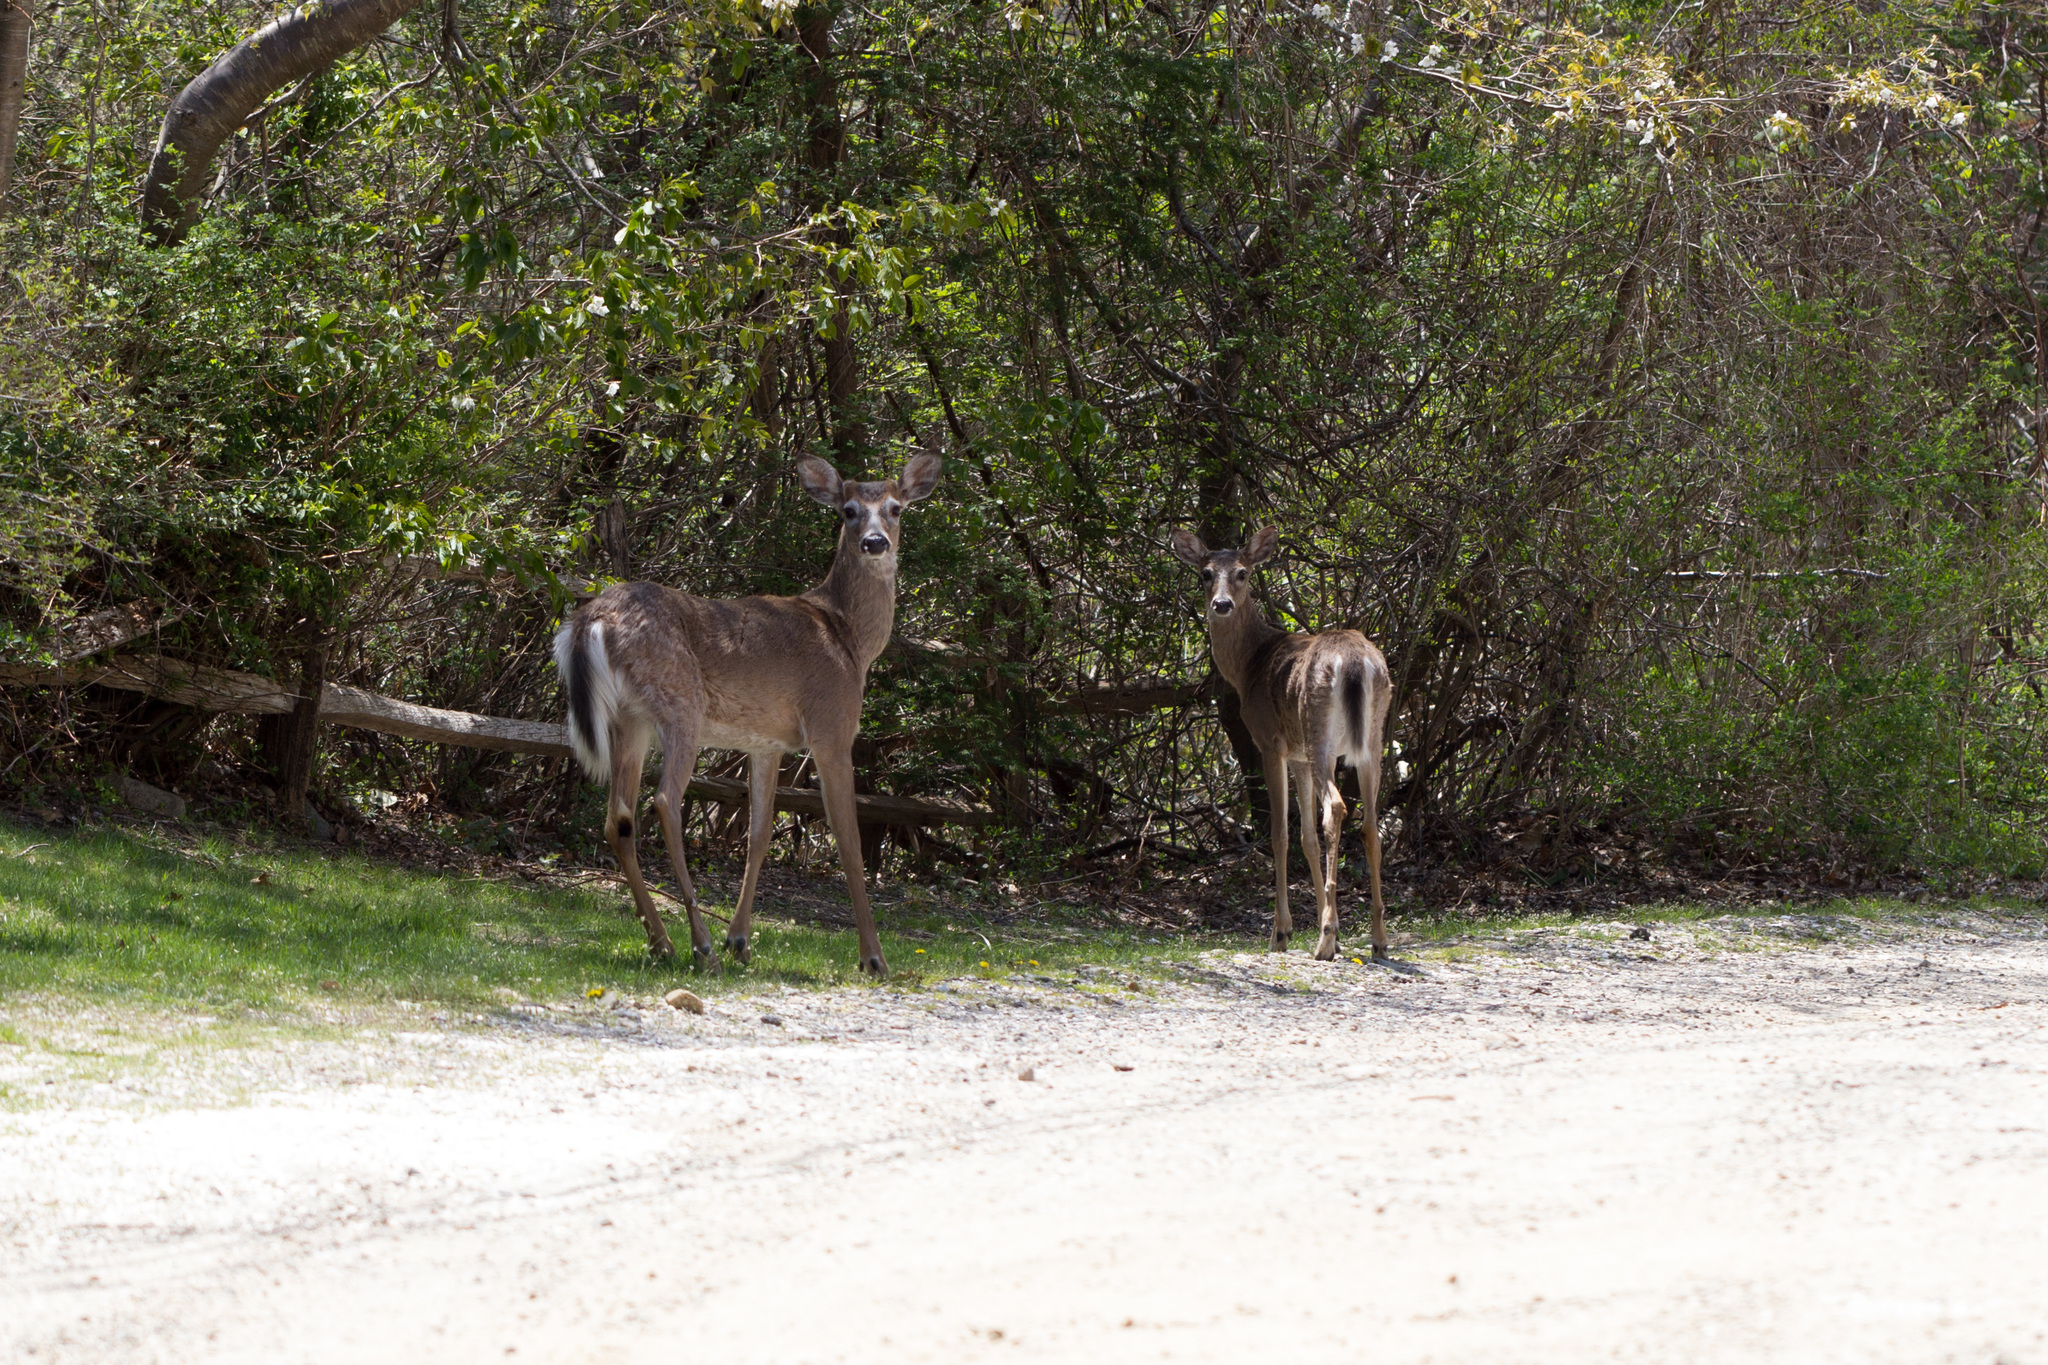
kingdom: Animalia
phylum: Chordata
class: Mammalia
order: Artiodactyla
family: Cervidae
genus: Odocoileus
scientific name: Odocoileus virginianus
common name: White-tailed deer
